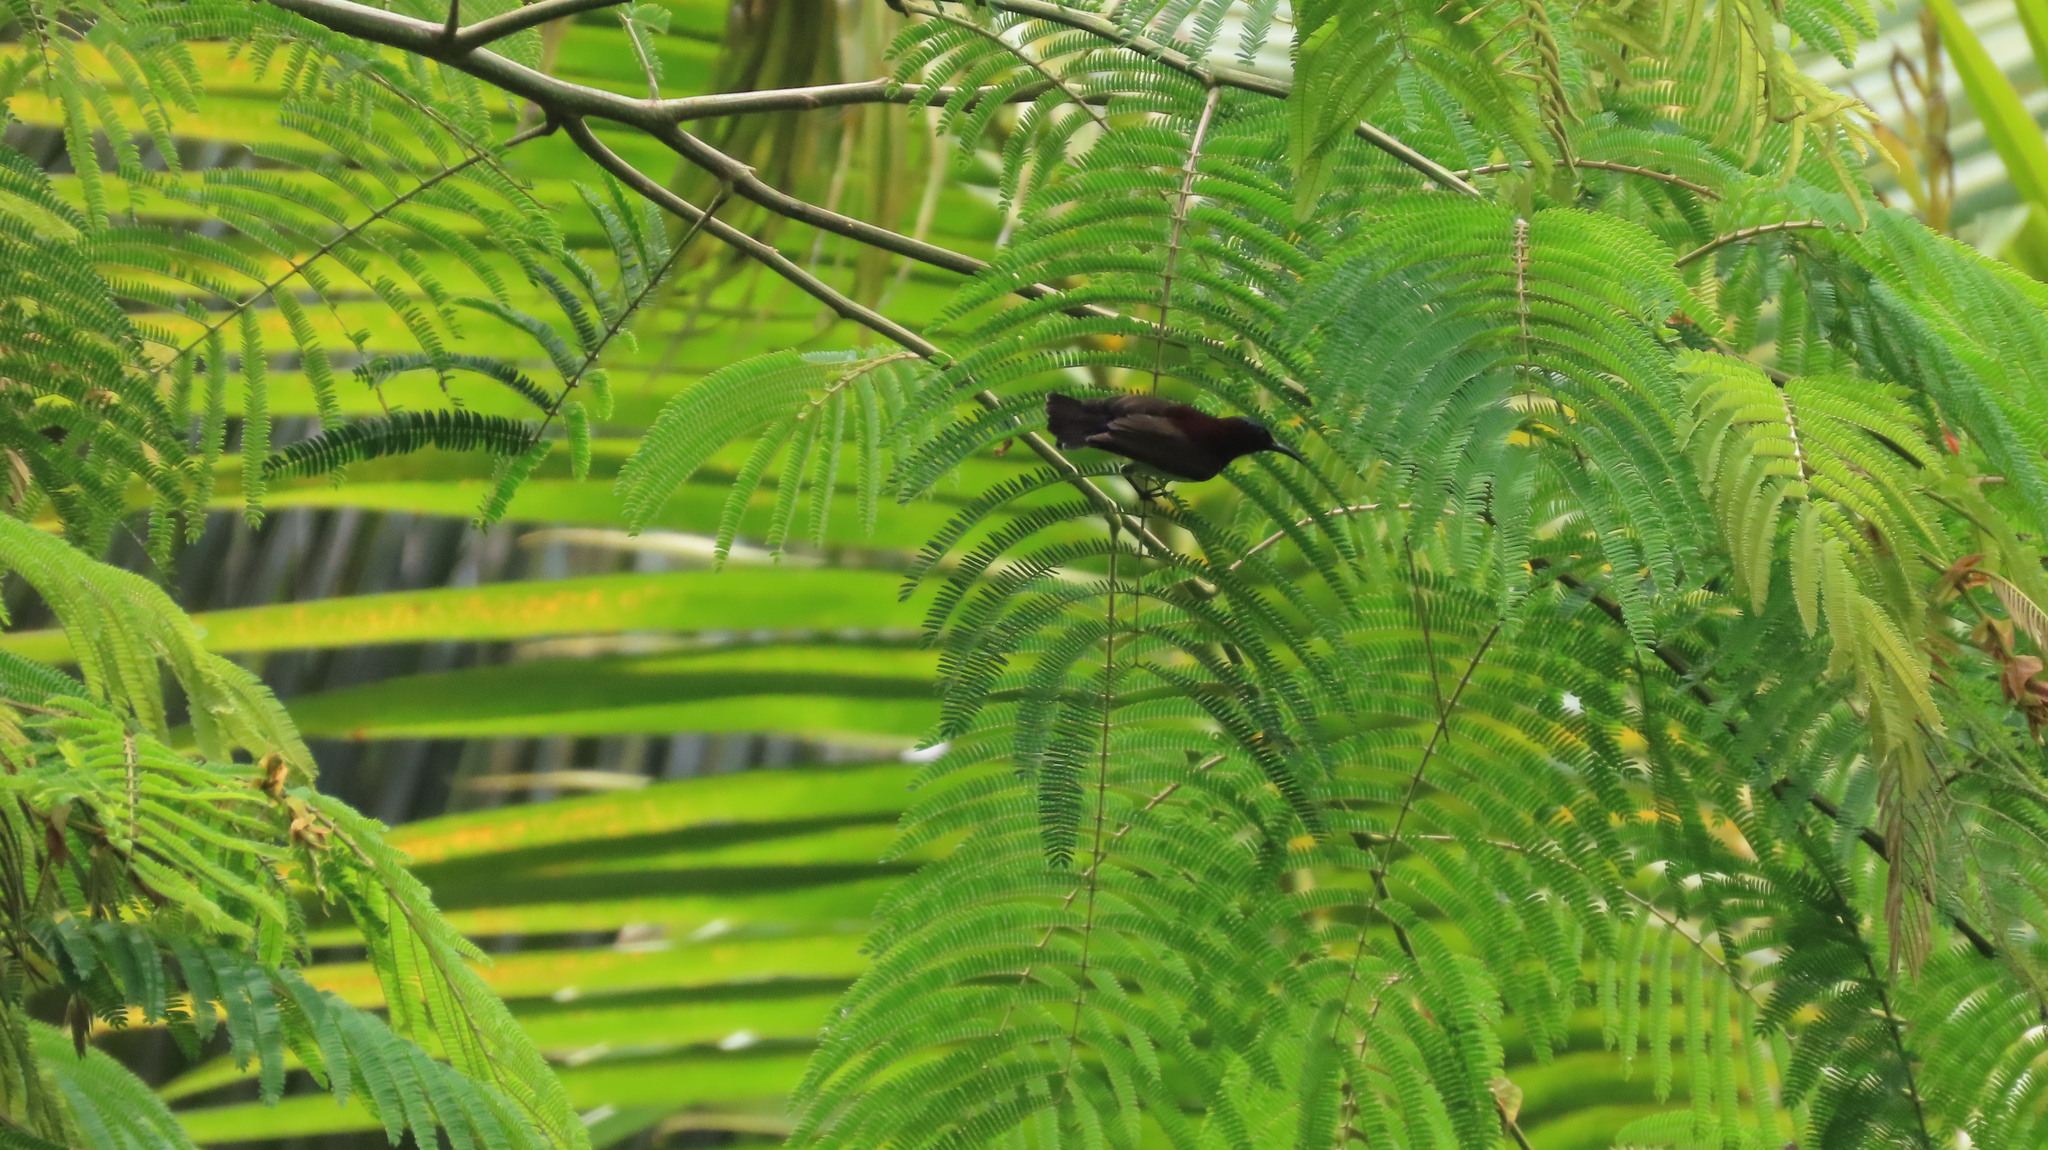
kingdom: Animalia
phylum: Chordata
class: Aves
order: Passeriformes
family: Nectariniidae
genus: Leptocoma
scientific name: Leptocoma zeylonica
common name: Purple-rumped sunbird
